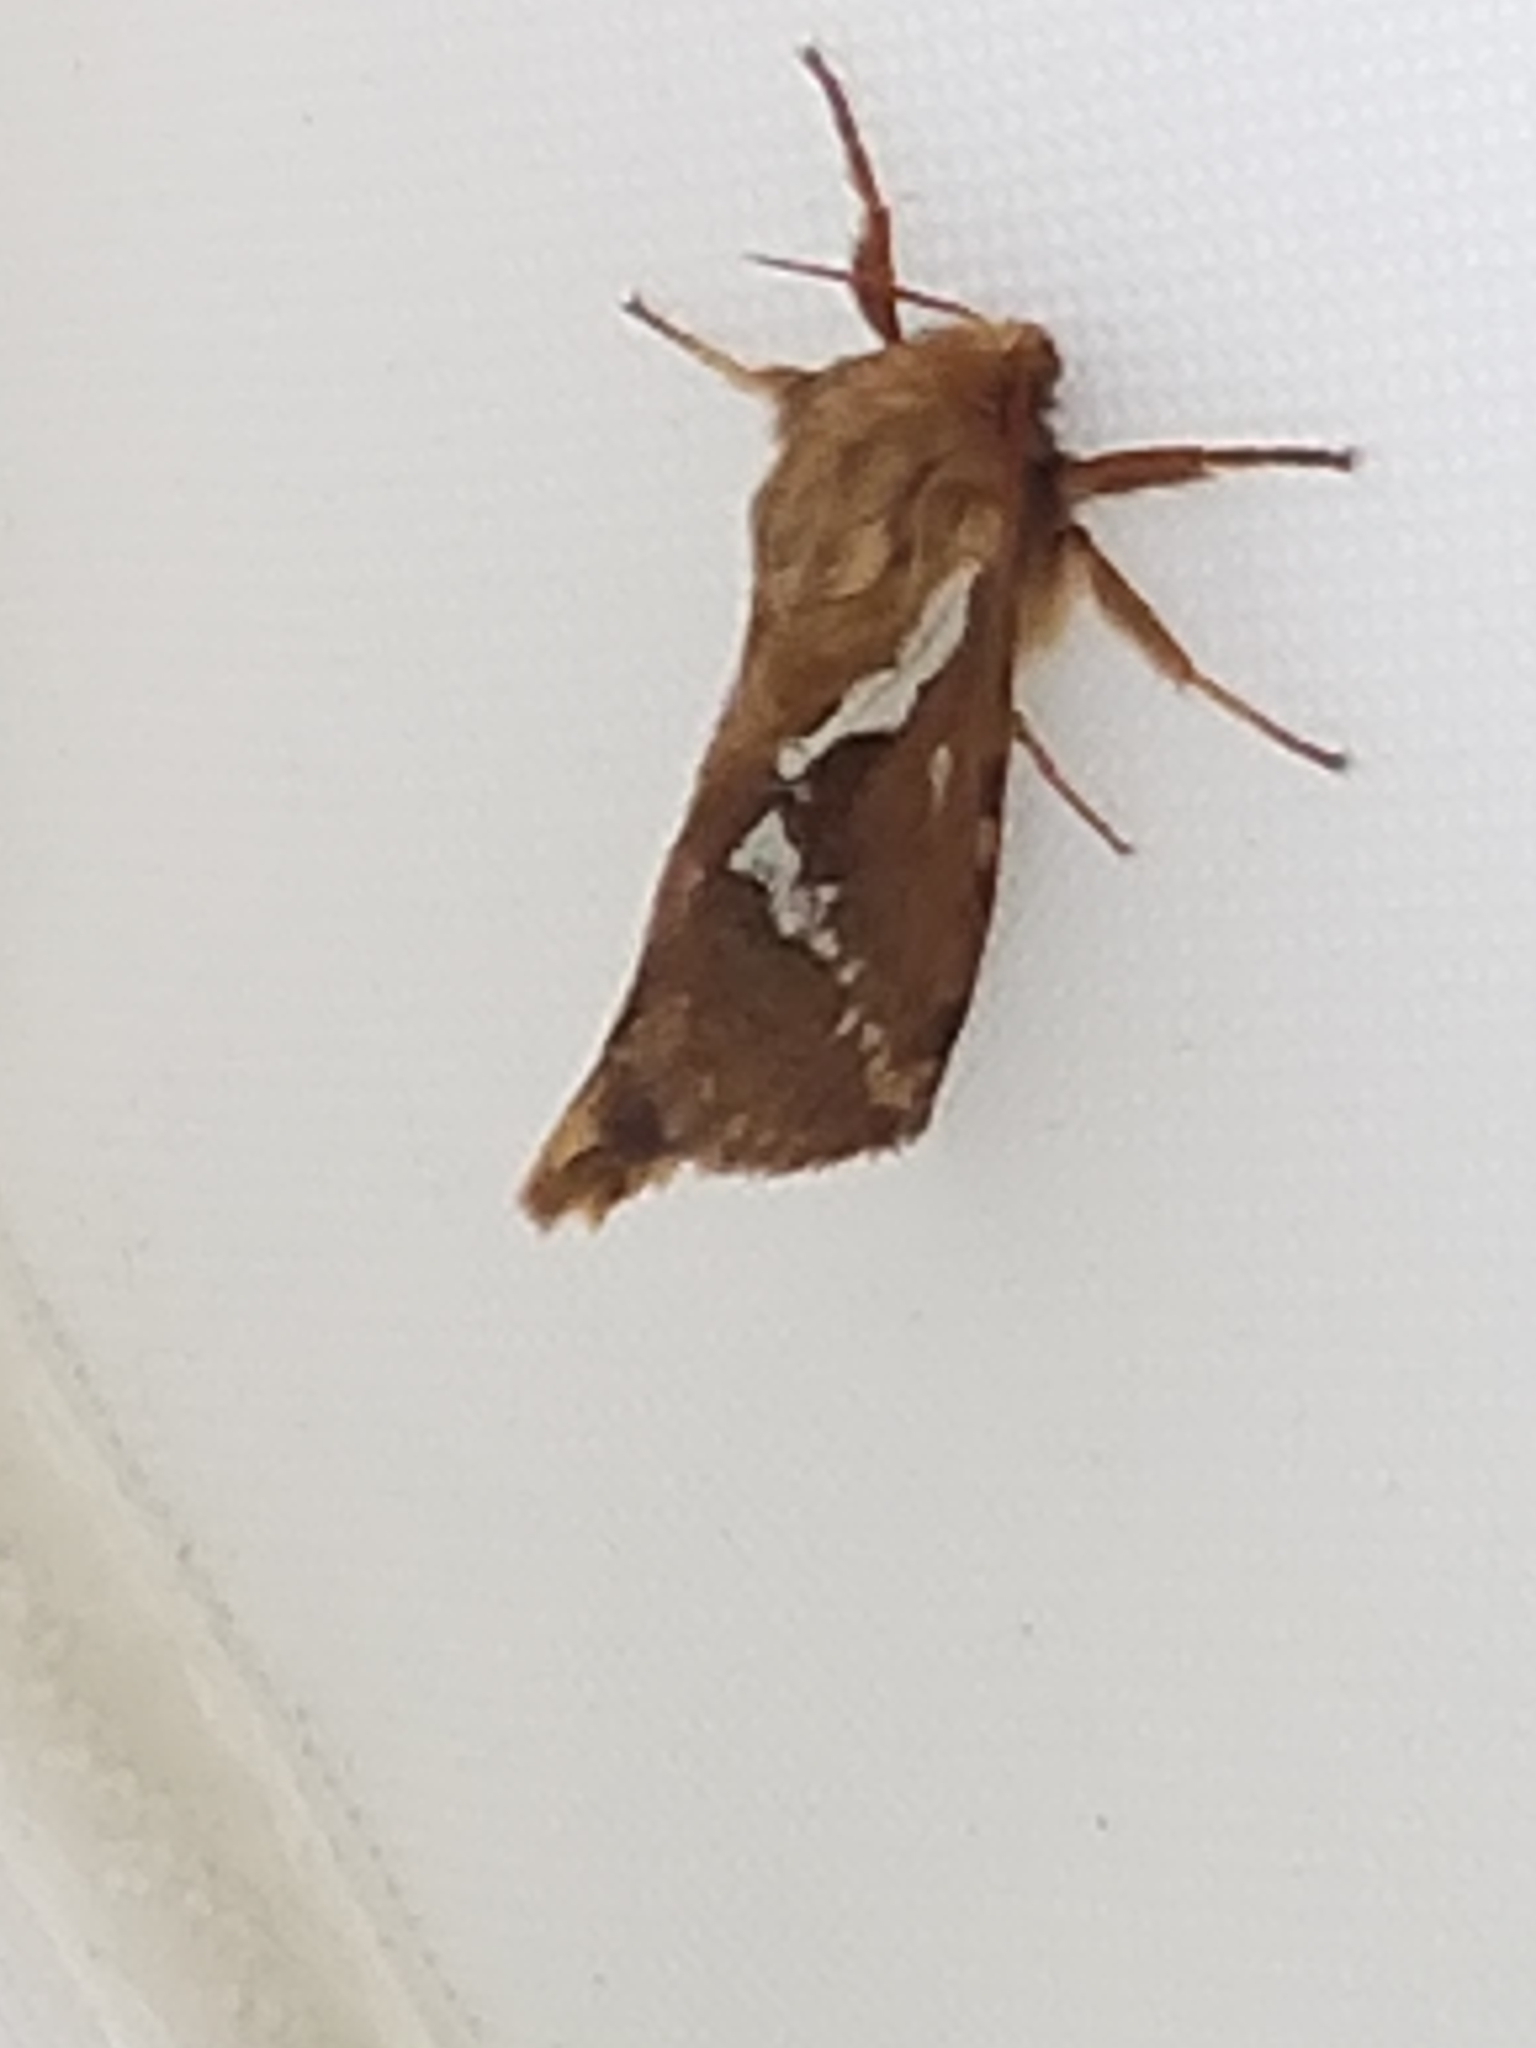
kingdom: Animalia
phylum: Arthropoda
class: Insecta
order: Lepidoptera
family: Hepialidae
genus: Korscheltellus
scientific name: Korscheltellus lupulina
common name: Common swift
